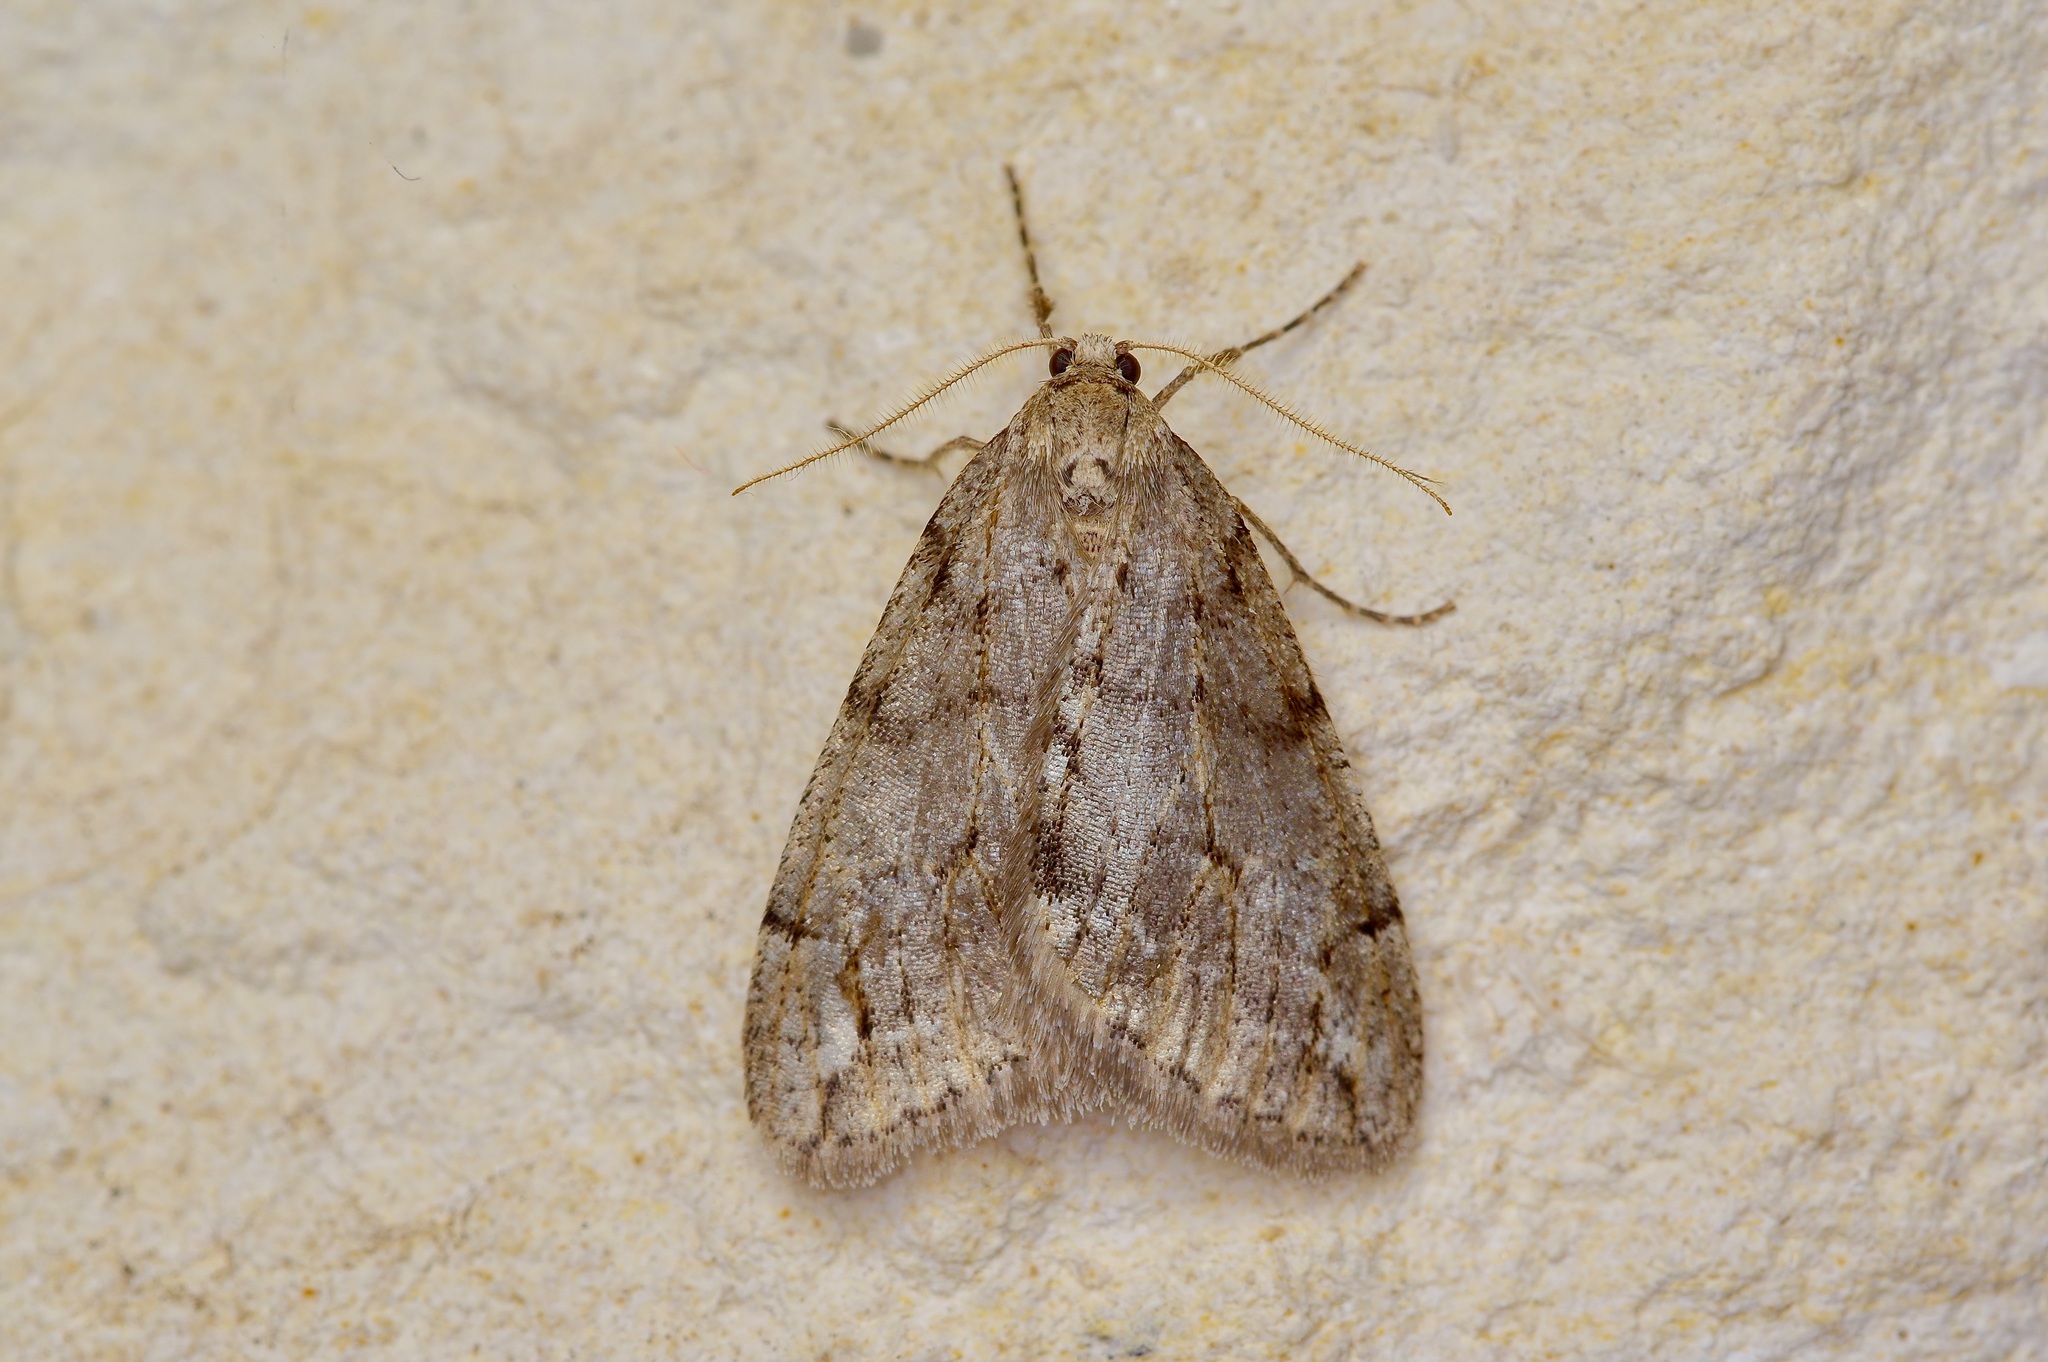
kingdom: Animalia
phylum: Arthropoda
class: Insecta
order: Lepidoptera
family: Geometridae
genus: Paleacrita
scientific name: Paleacrita vernata
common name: Spring cankerworm
